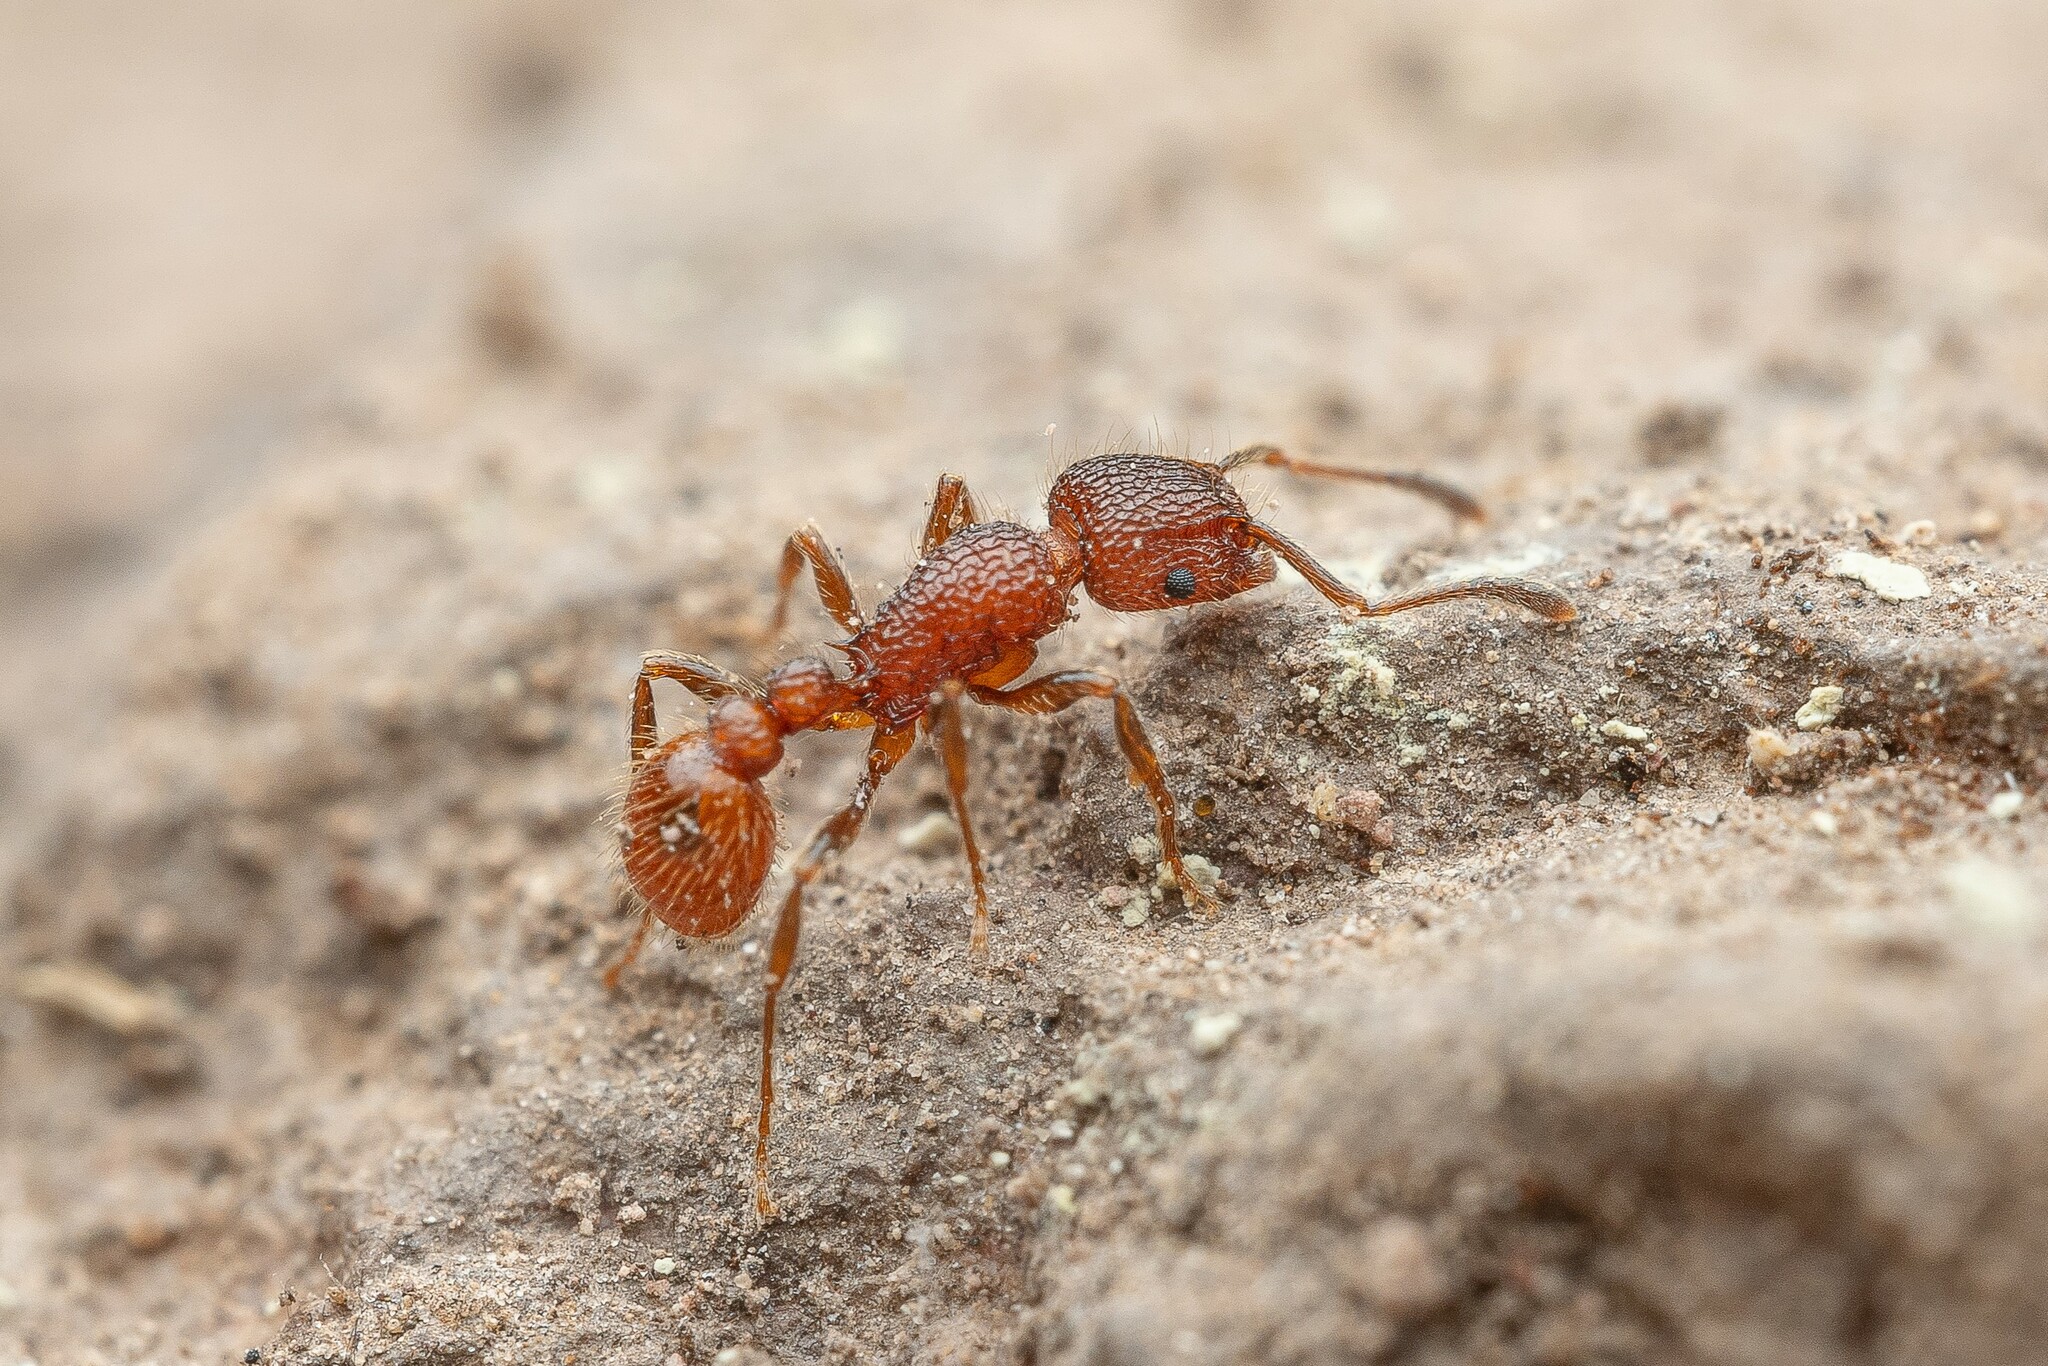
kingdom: Animalia
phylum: Arthropoda
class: Insecta
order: Hymenoptera
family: Formicidae
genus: Tetramorium
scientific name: Tetramorium spinosum
